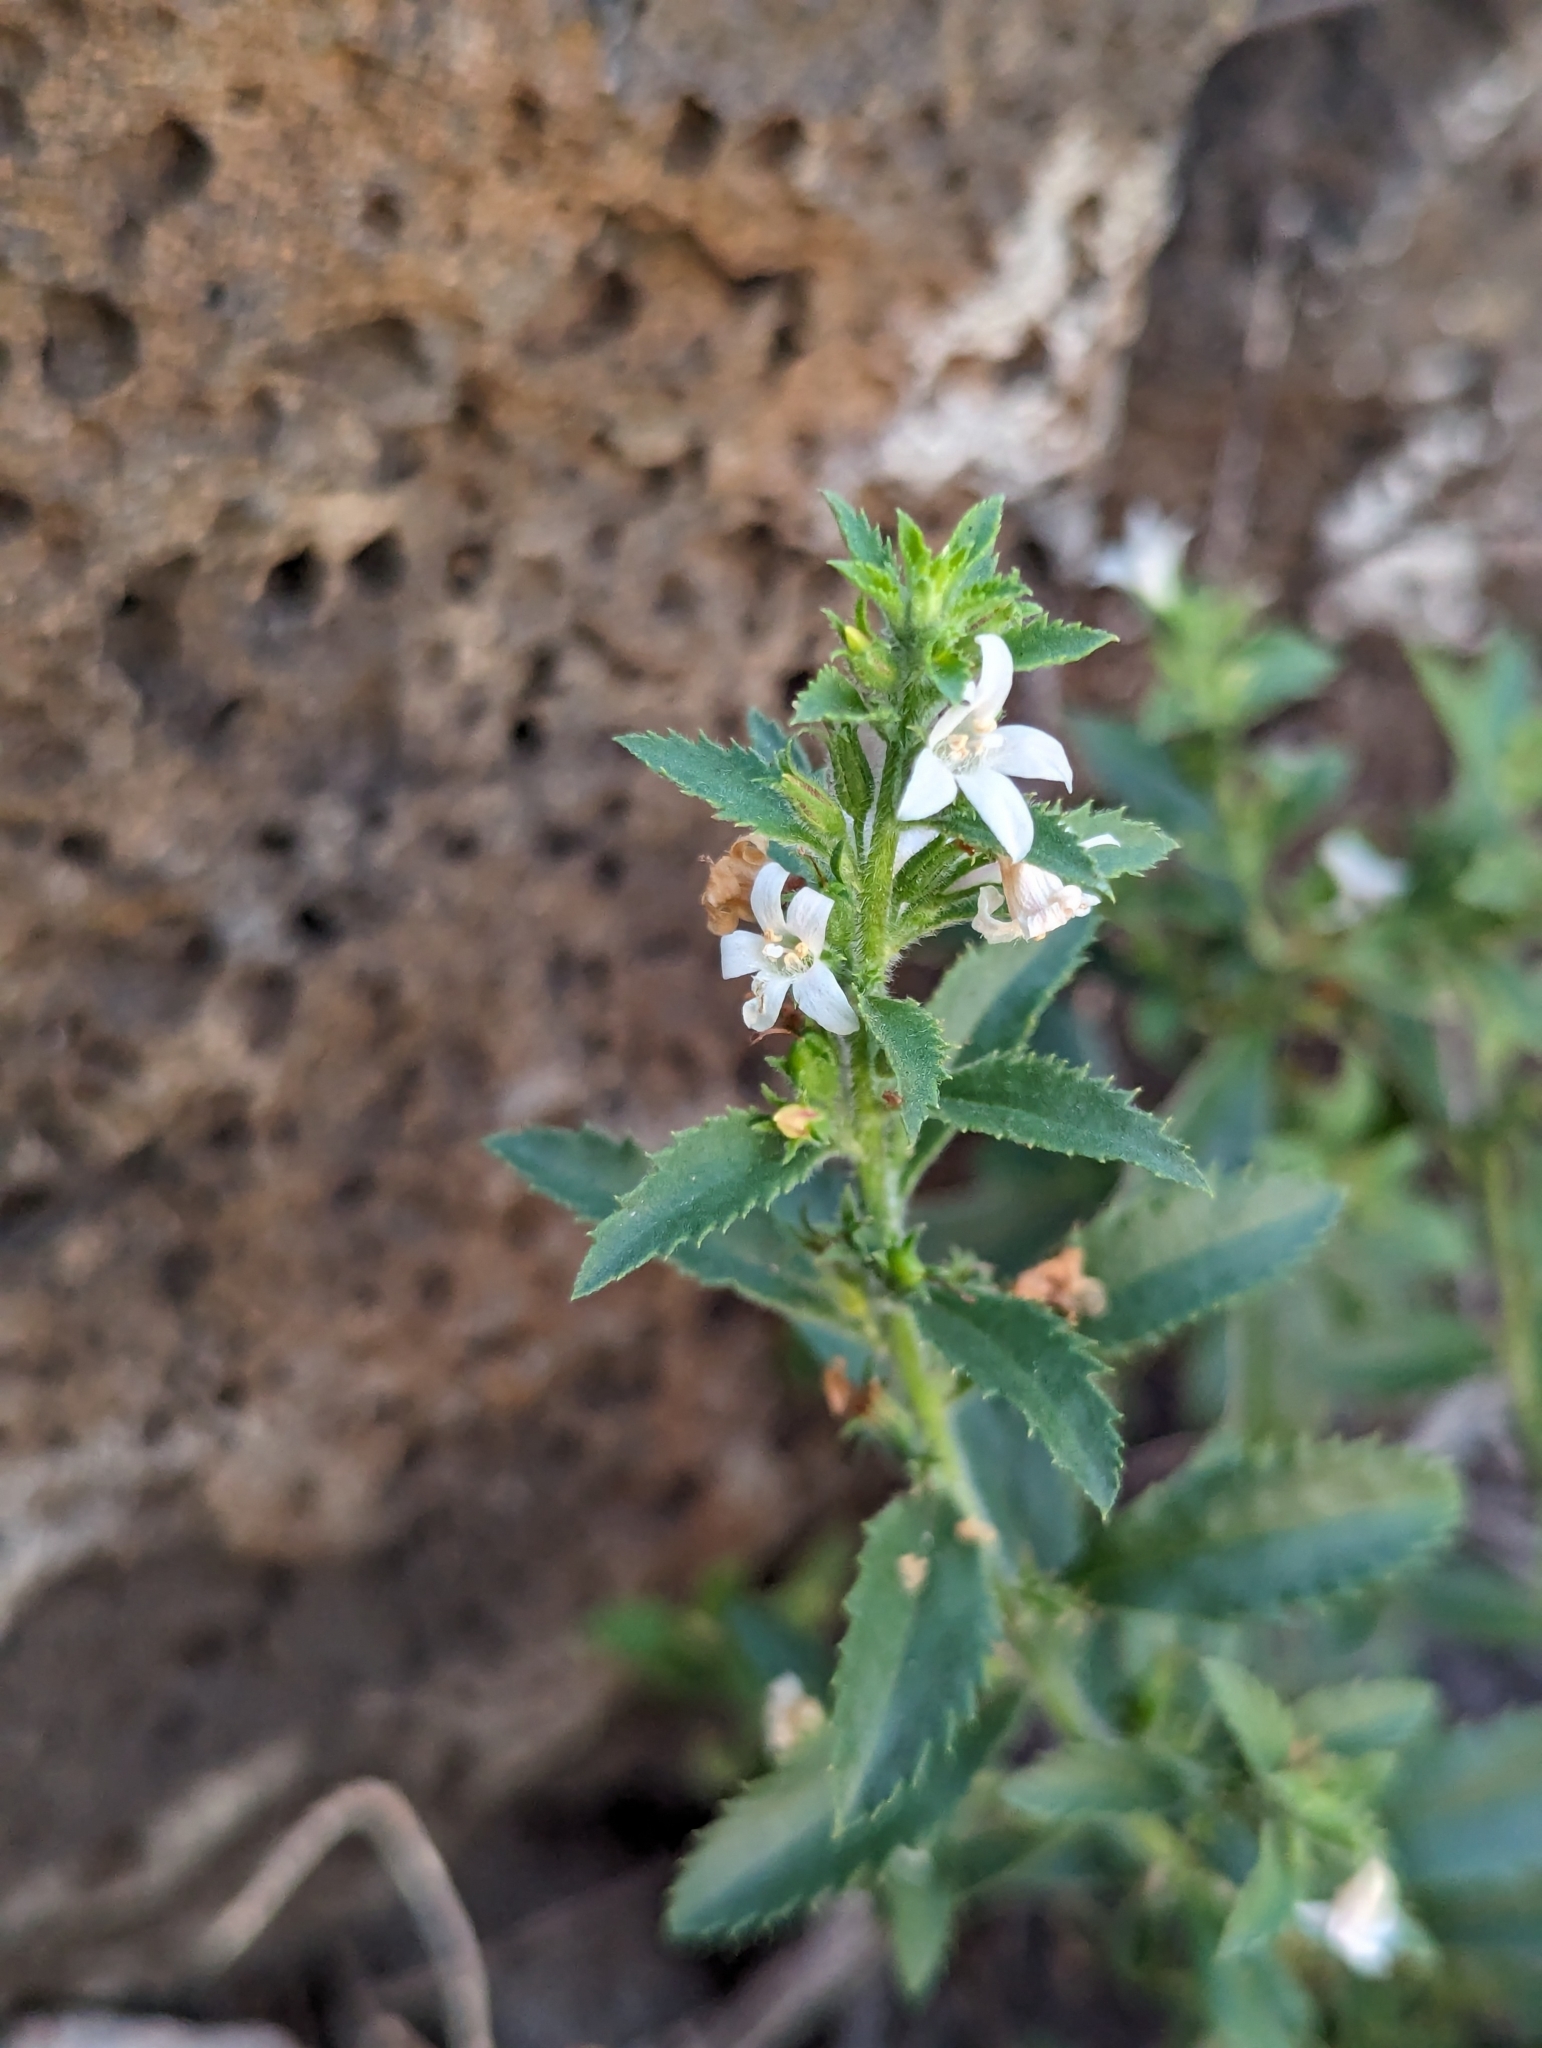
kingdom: Plantae
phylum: Tracheophyta
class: Magnoliopsida
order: Lamiales
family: Scrophulariaceae
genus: Capraria
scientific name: Capraria biflora
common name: Goatweed
